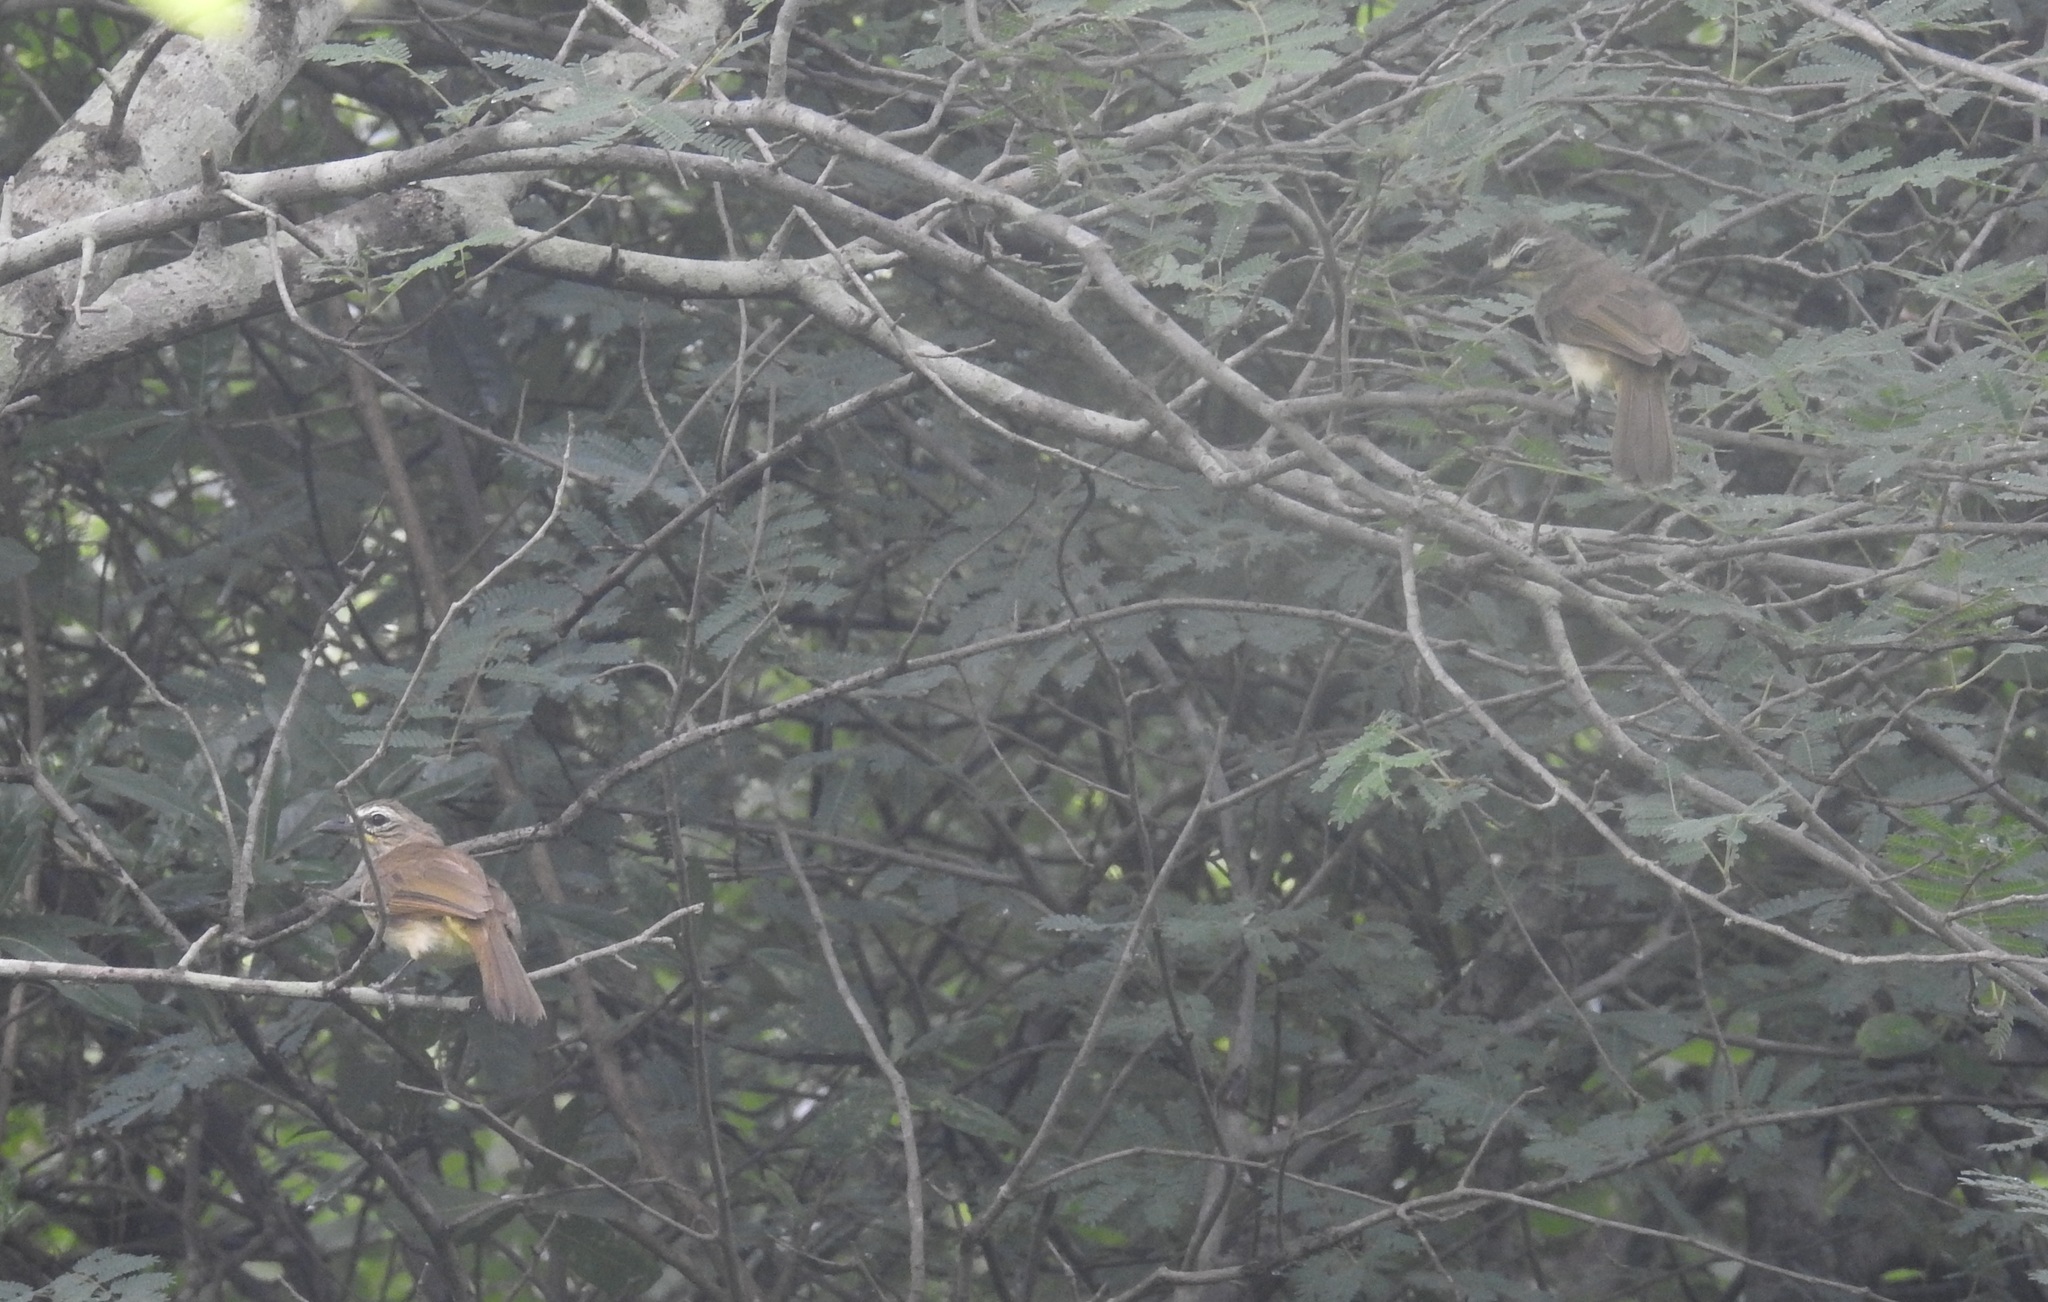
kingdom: Animalia
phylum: Chordata
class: Aves
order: Passeriformes
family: Pycnonotidae
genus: Pycnonotus
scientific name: Pycnonotus luteolus
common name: White-browed bulbul
